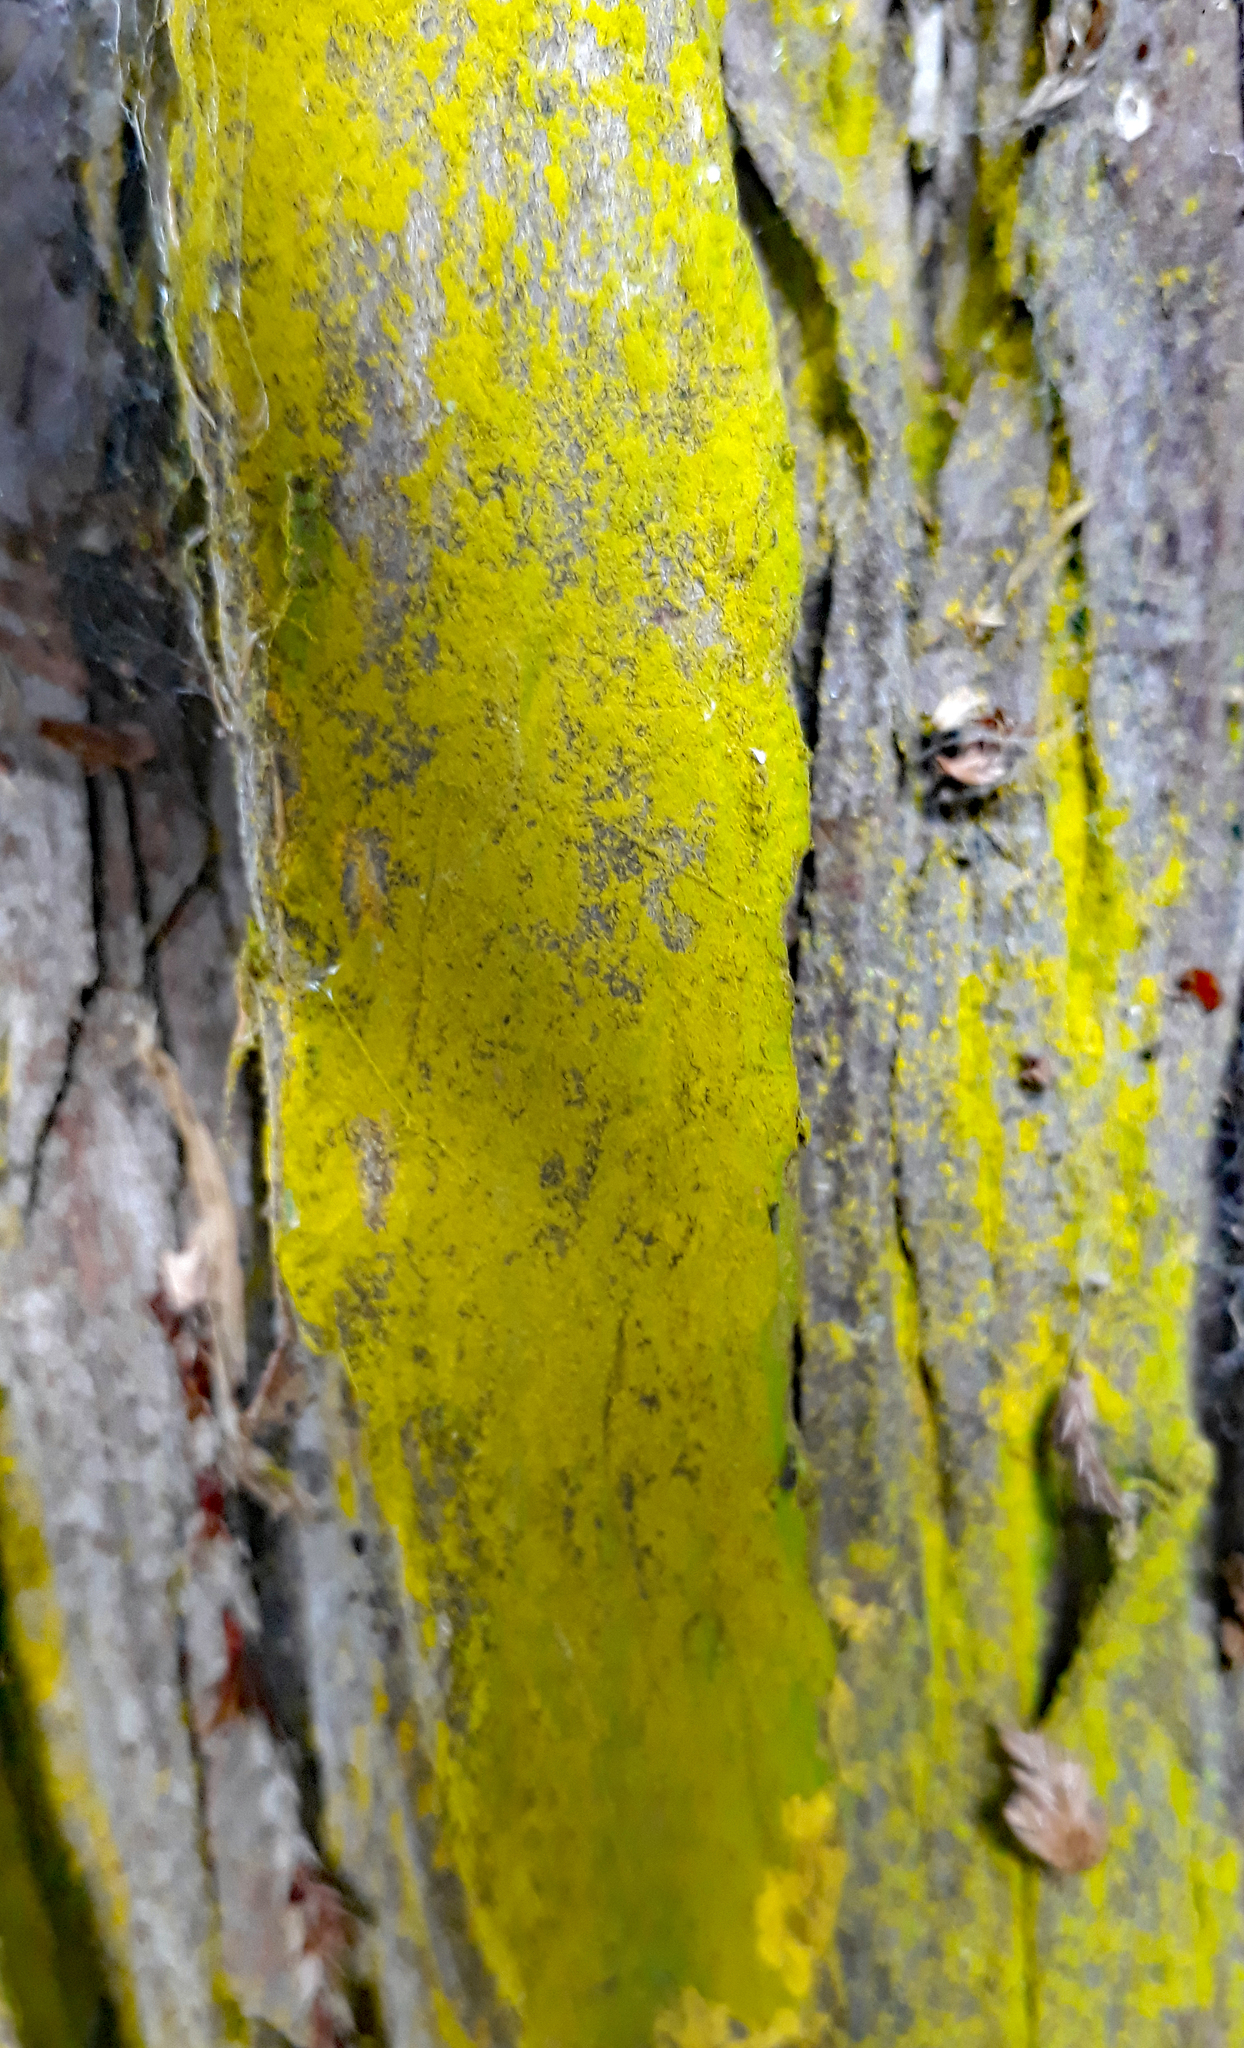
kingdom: Fungi
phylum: Ascomycota
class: Arthoniomycetes
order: Arthoniales
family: Chrysotrichaceae
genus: Chrysothrix
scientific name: Chrysothrix xanthina
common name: Common gold-dust
